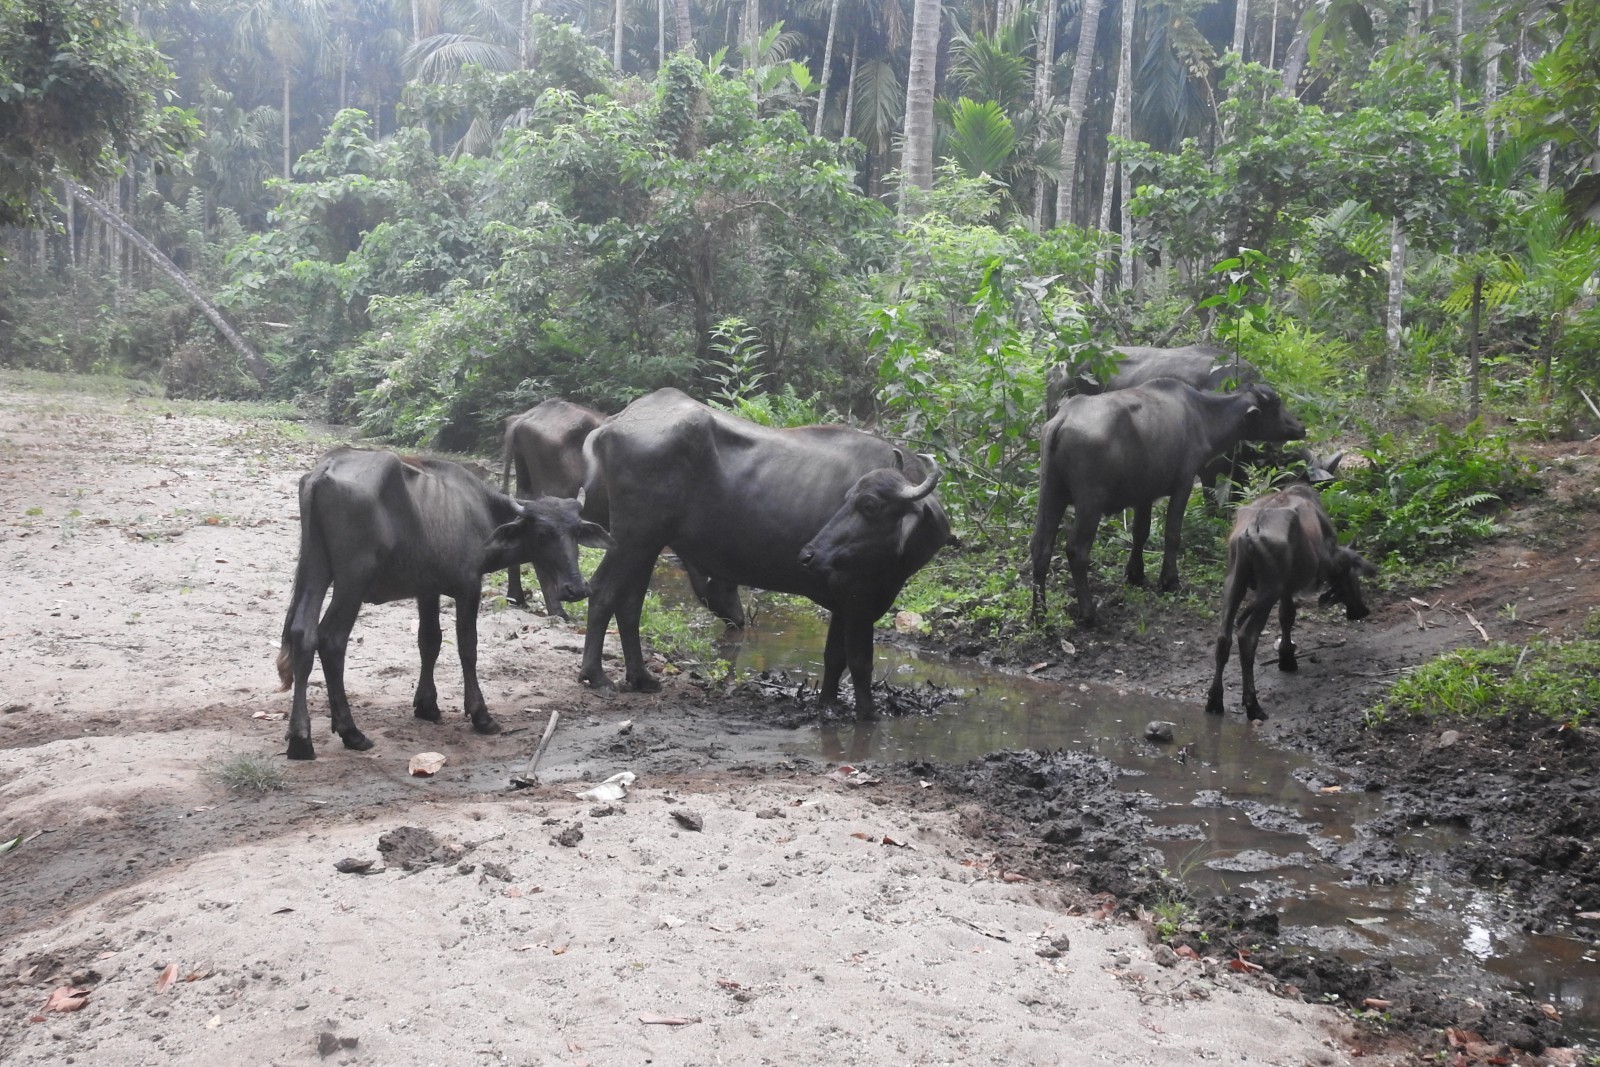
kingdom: Animalia
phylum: Chordata
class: Mammalia
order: Artiodactyla
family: Bovidae
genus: Bubalus
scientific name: Bubalus bubalis
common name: Water buffalo
